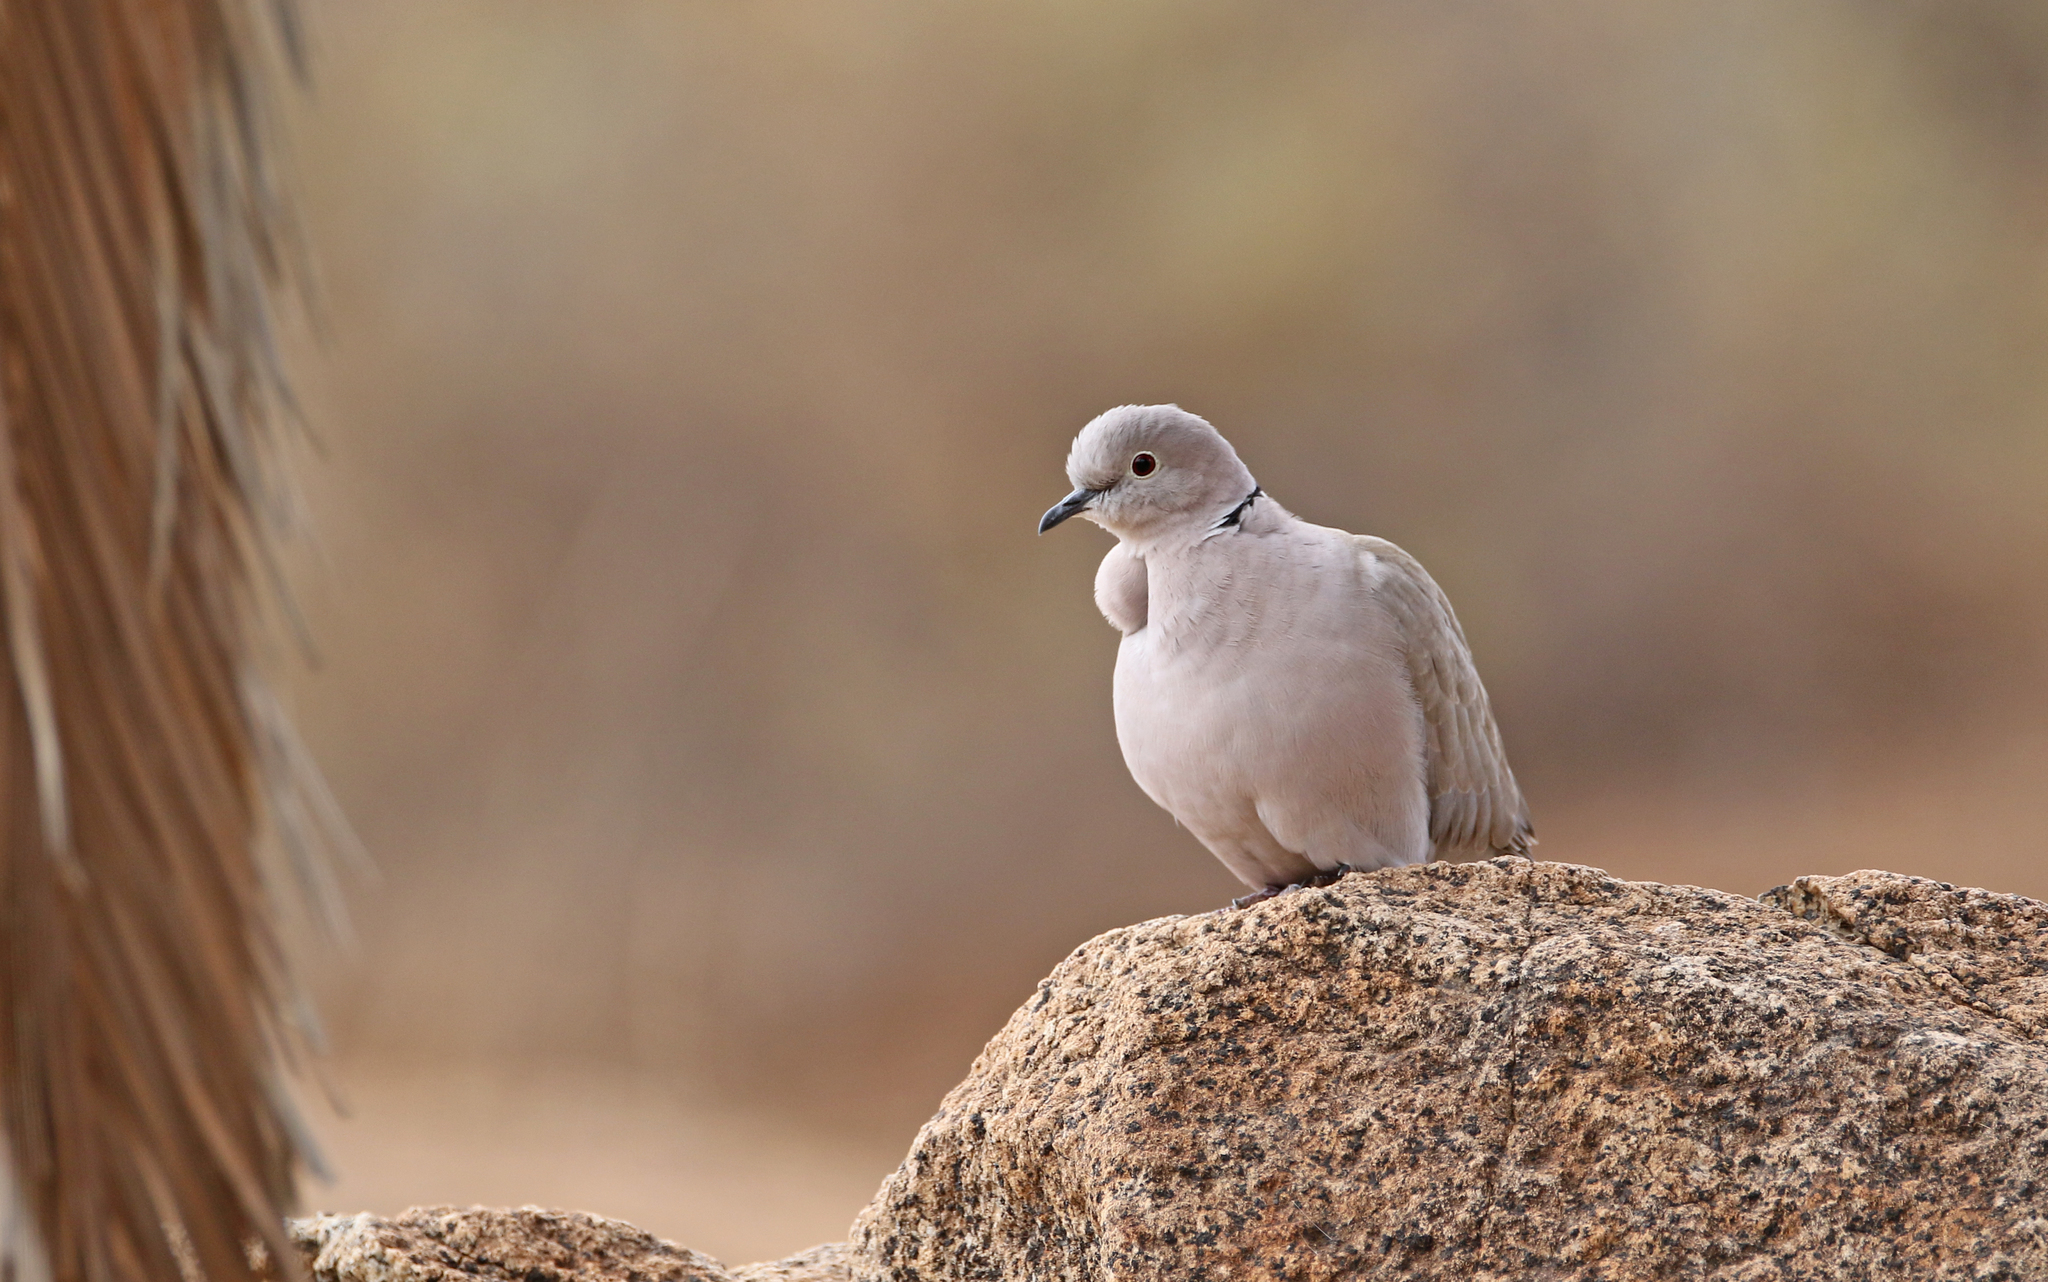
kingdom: Animalia
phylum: Chordata
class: Aves
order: Columbiformes
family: Columbidae
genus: Streptopelia
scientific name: Streptopelia decaocto
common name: Eurasian collared dove
